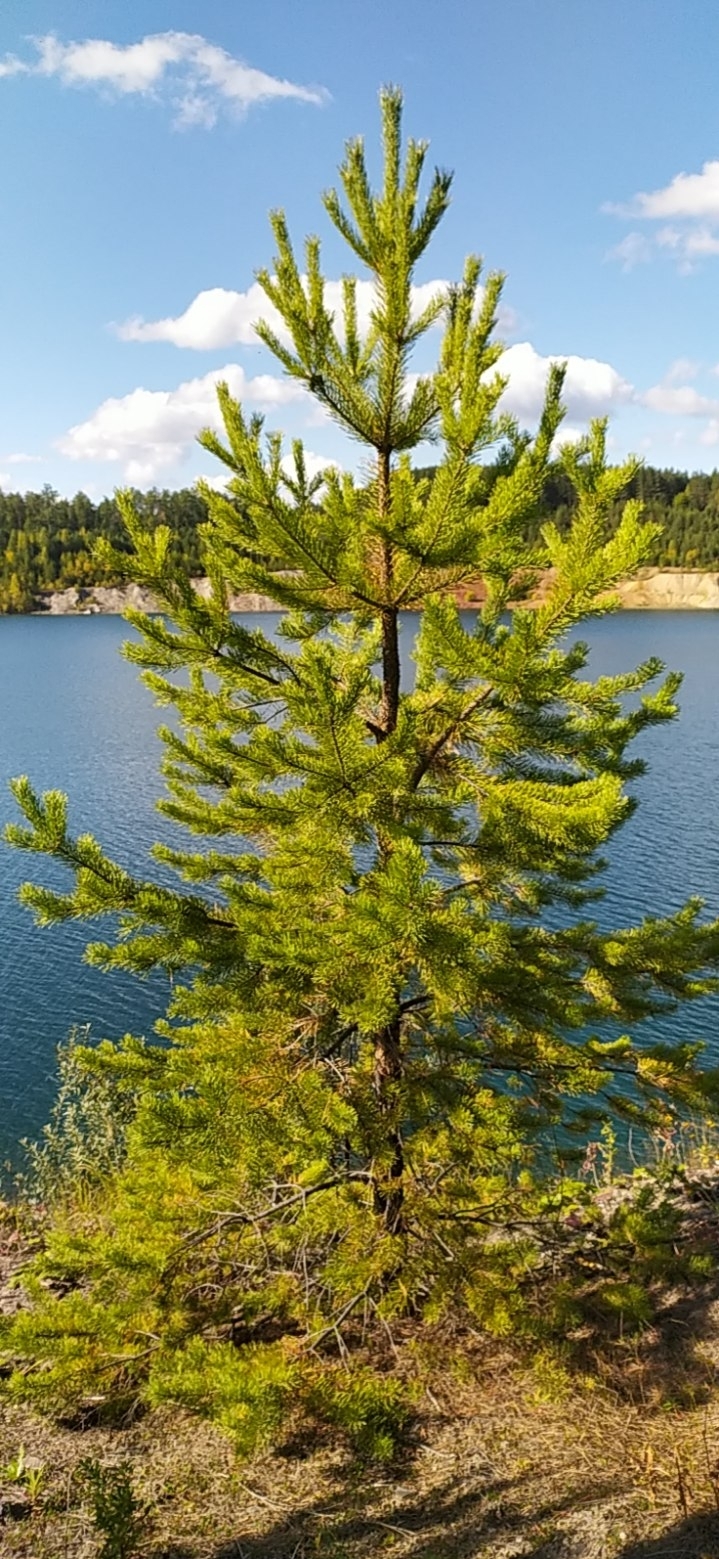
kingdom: Plantae
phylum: Tracheophyta
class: Pinopsida
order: Pinales
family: Pinaceae
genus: Pinus
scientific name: Pinus sylvestris
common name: Scots pine
